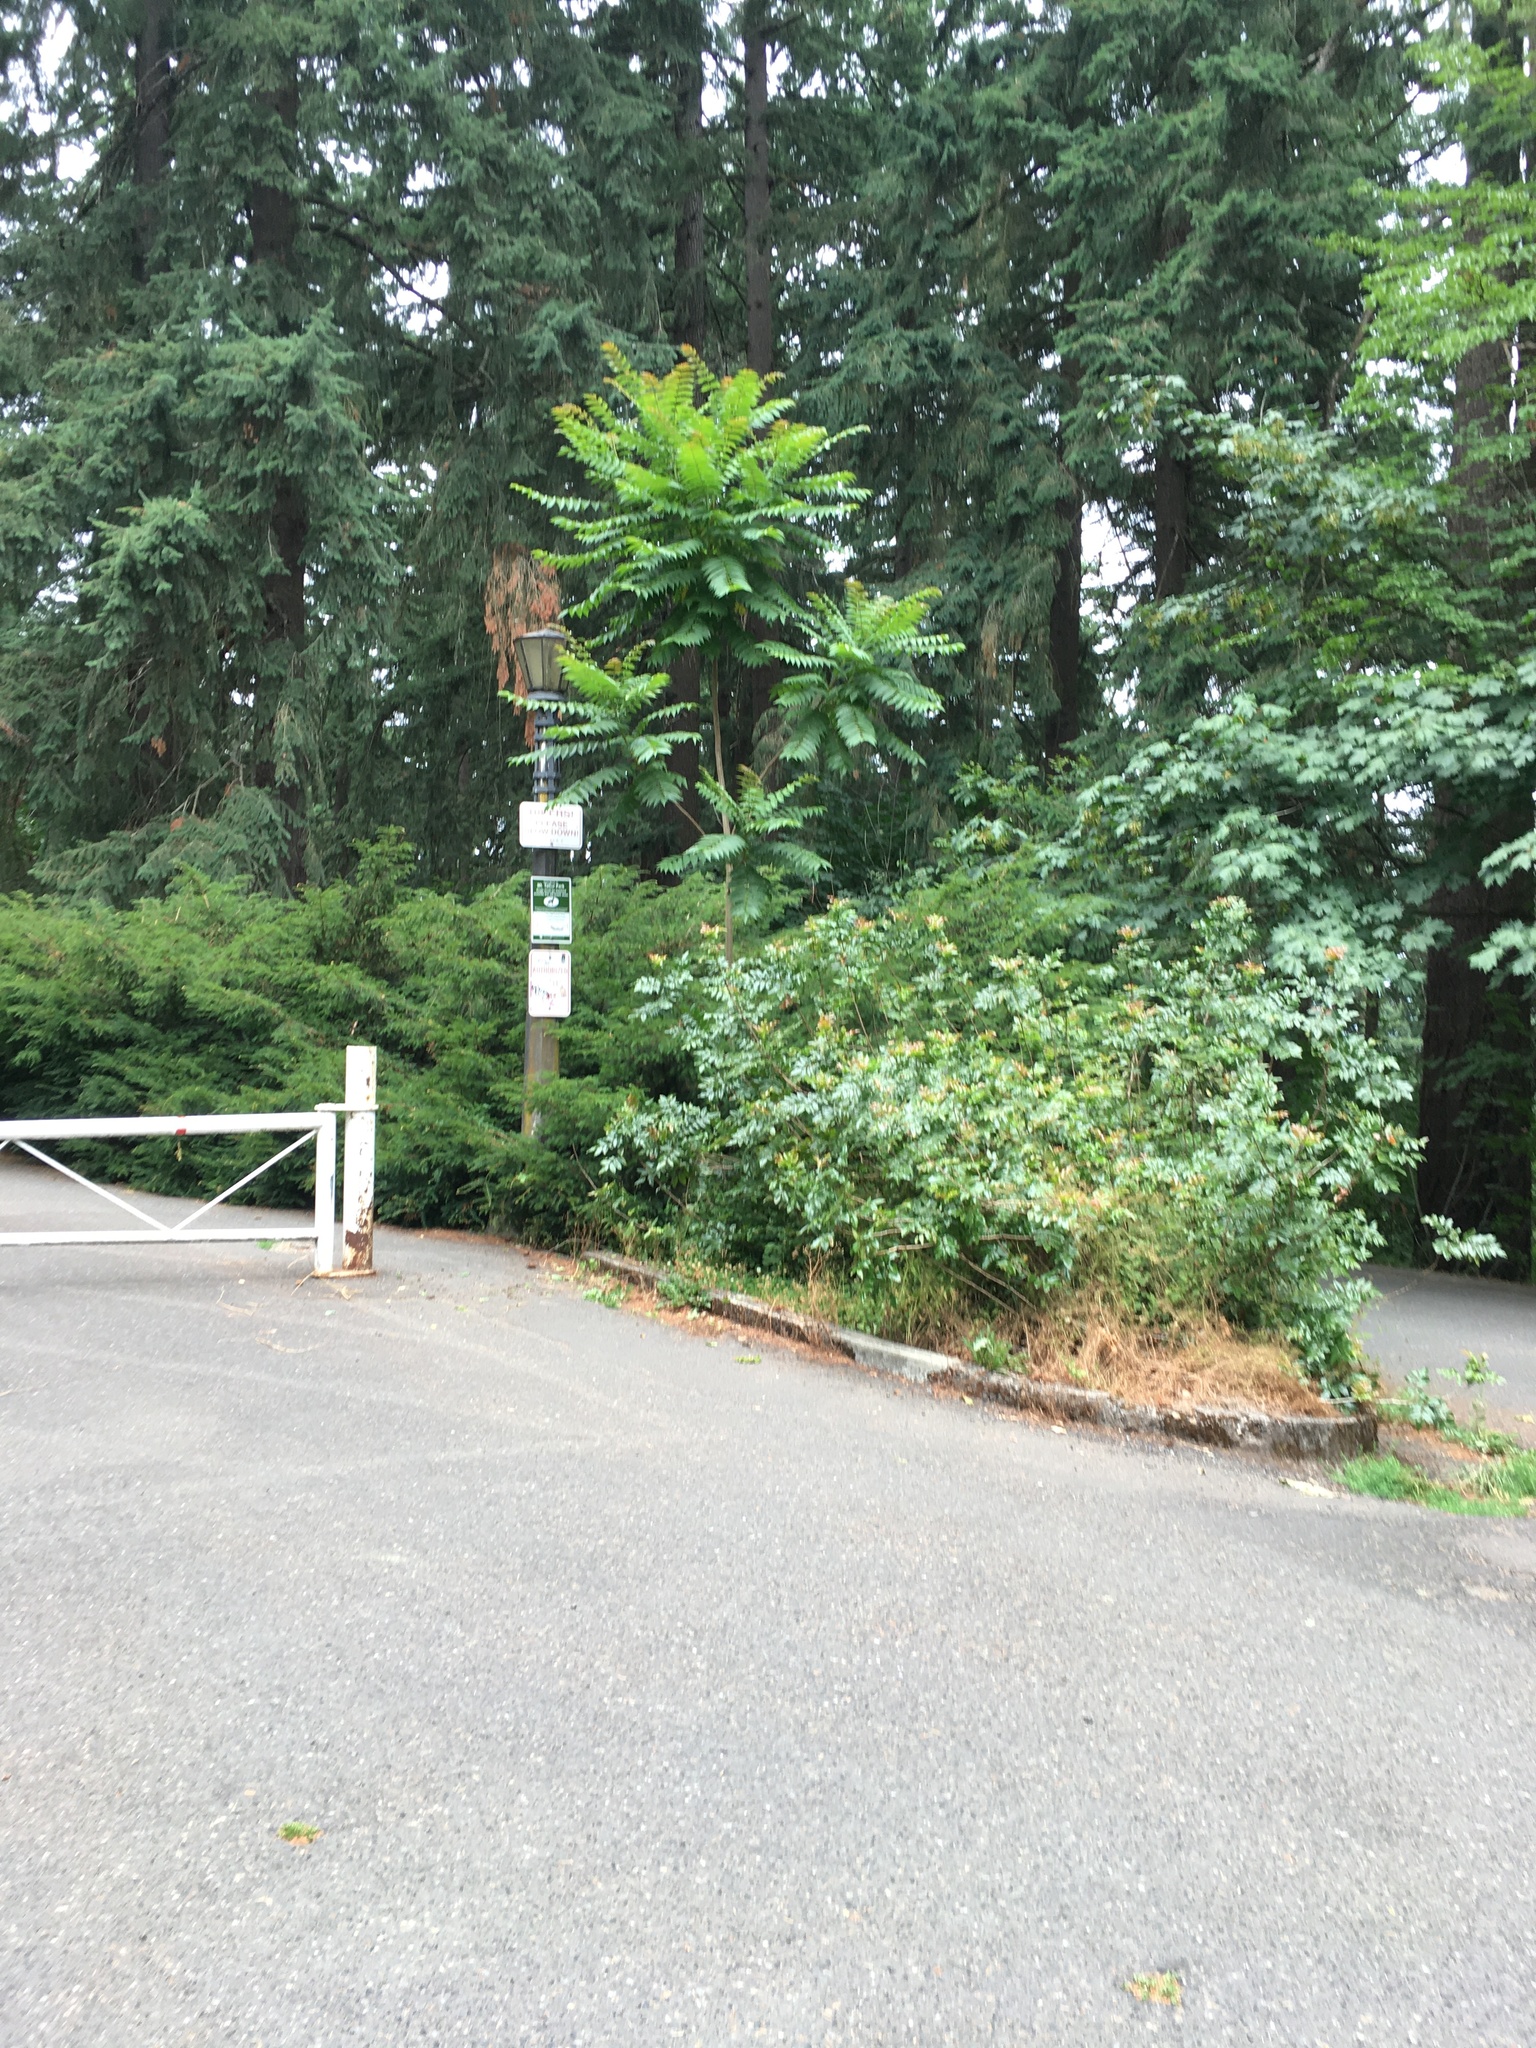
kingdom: Plantae
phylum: Tracheophyta
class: Magnoliopsida
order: Sapindales
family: Simaroubaceae
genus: Ailanthus
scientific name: Ailanthus altissima
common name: Tree-of-heaven
